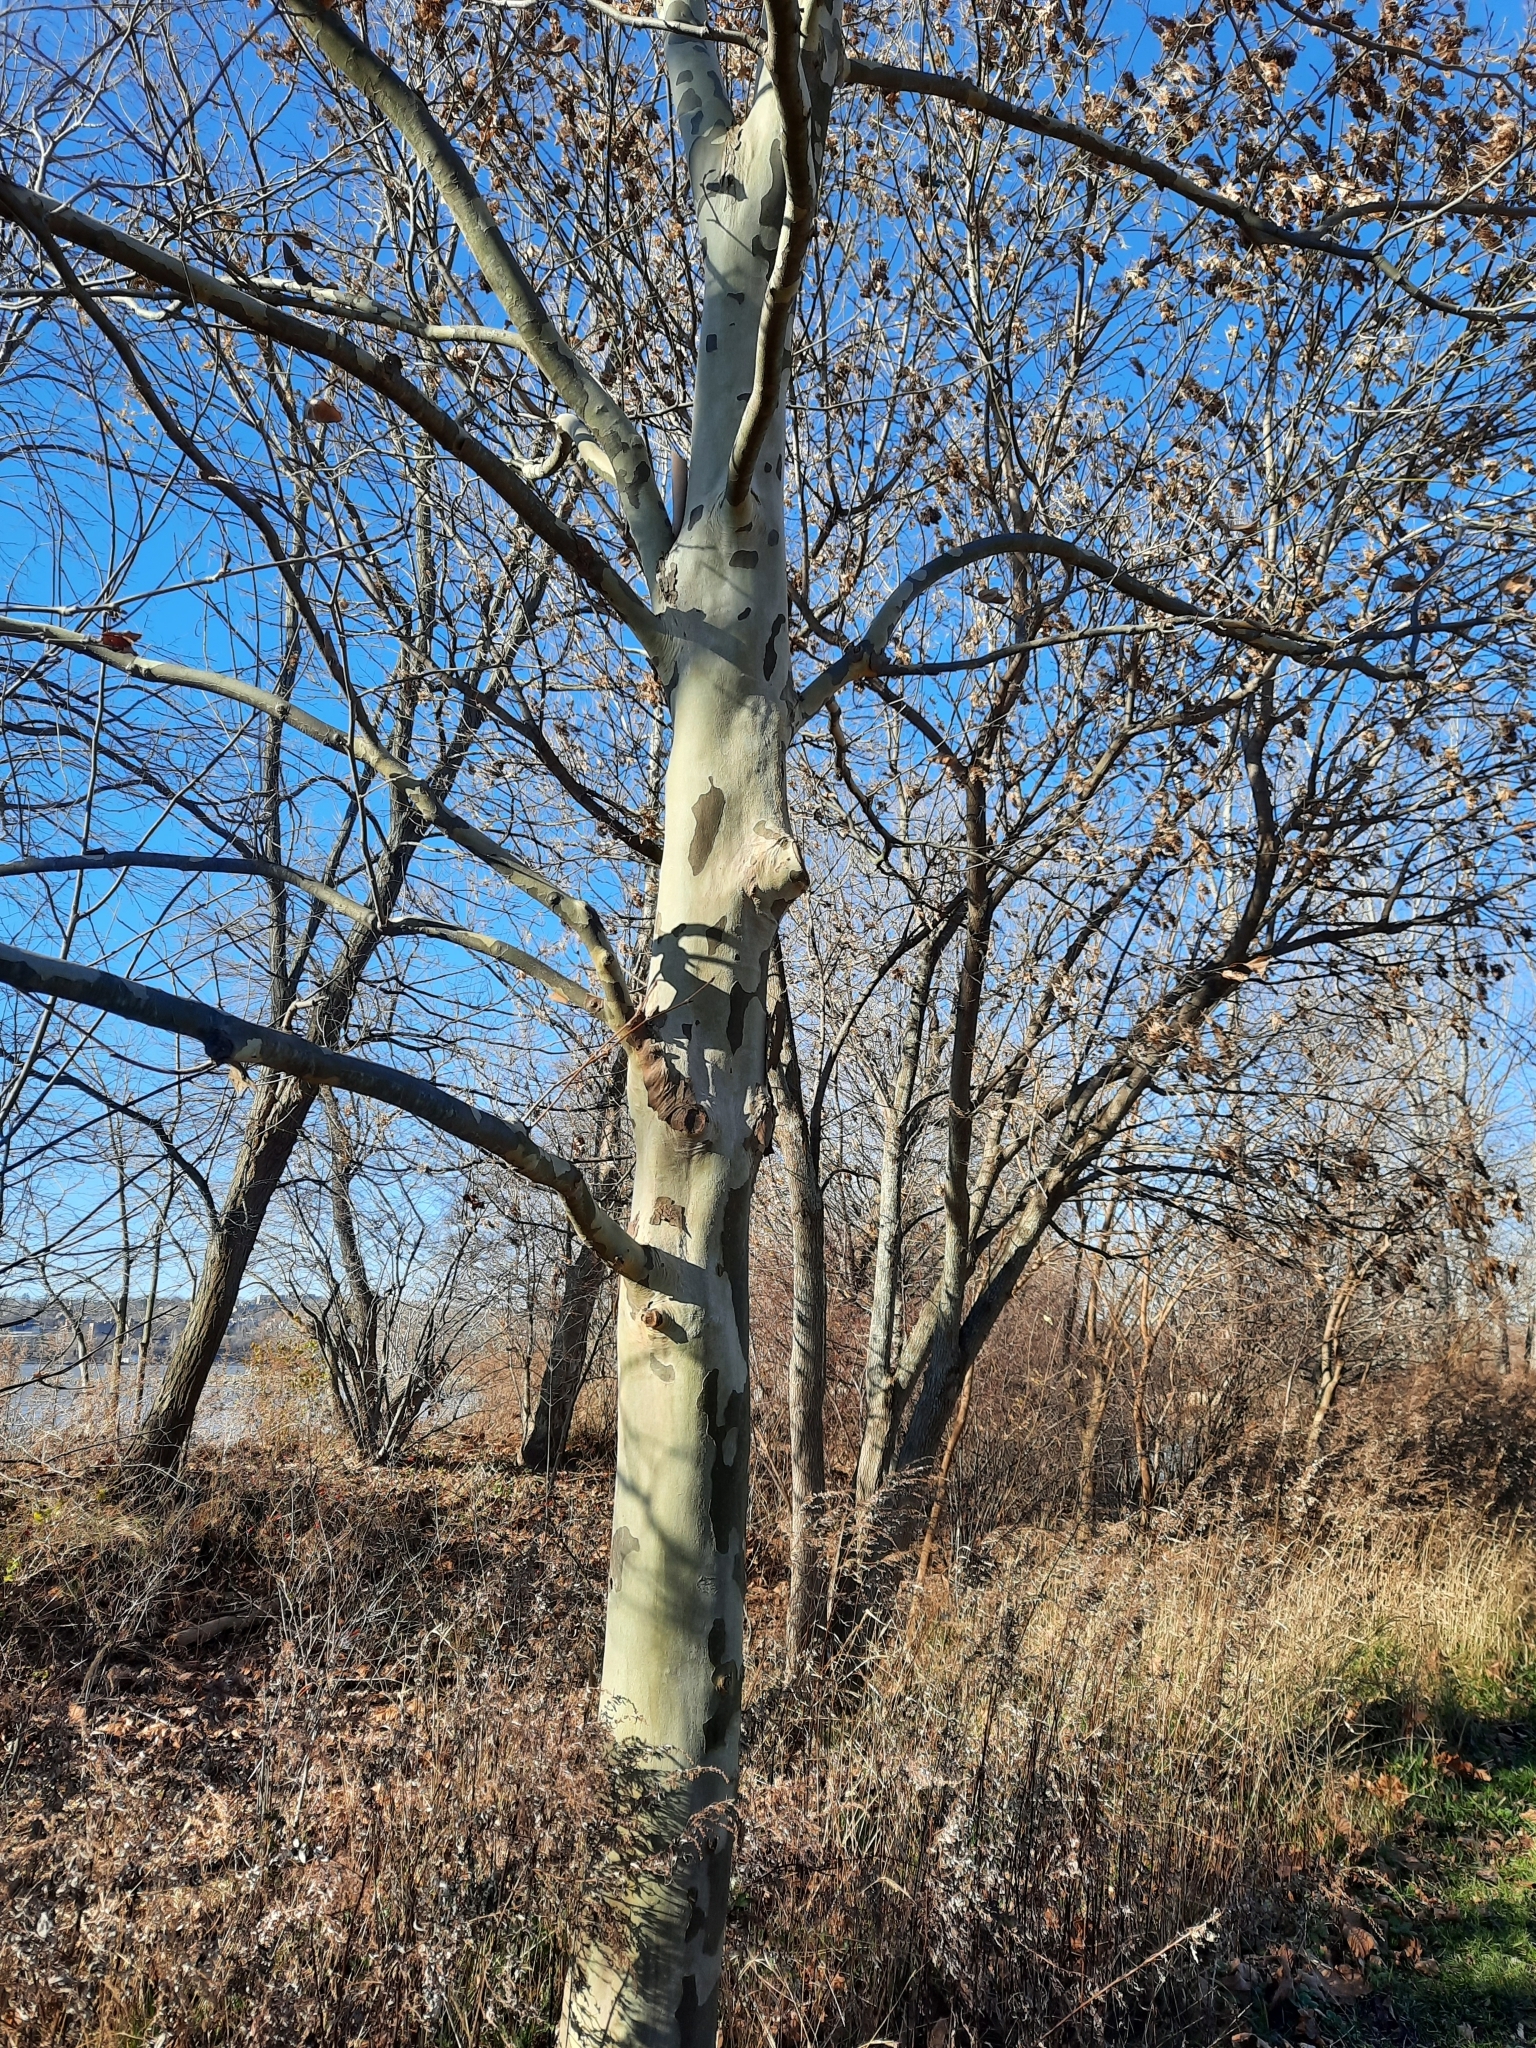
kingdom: Plantae
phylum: Tracheophyta
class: Magnoliopsida
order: Proteales
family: Platanaceae
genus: Platanus
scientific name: Platanus occidentalis
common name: American sycamore
